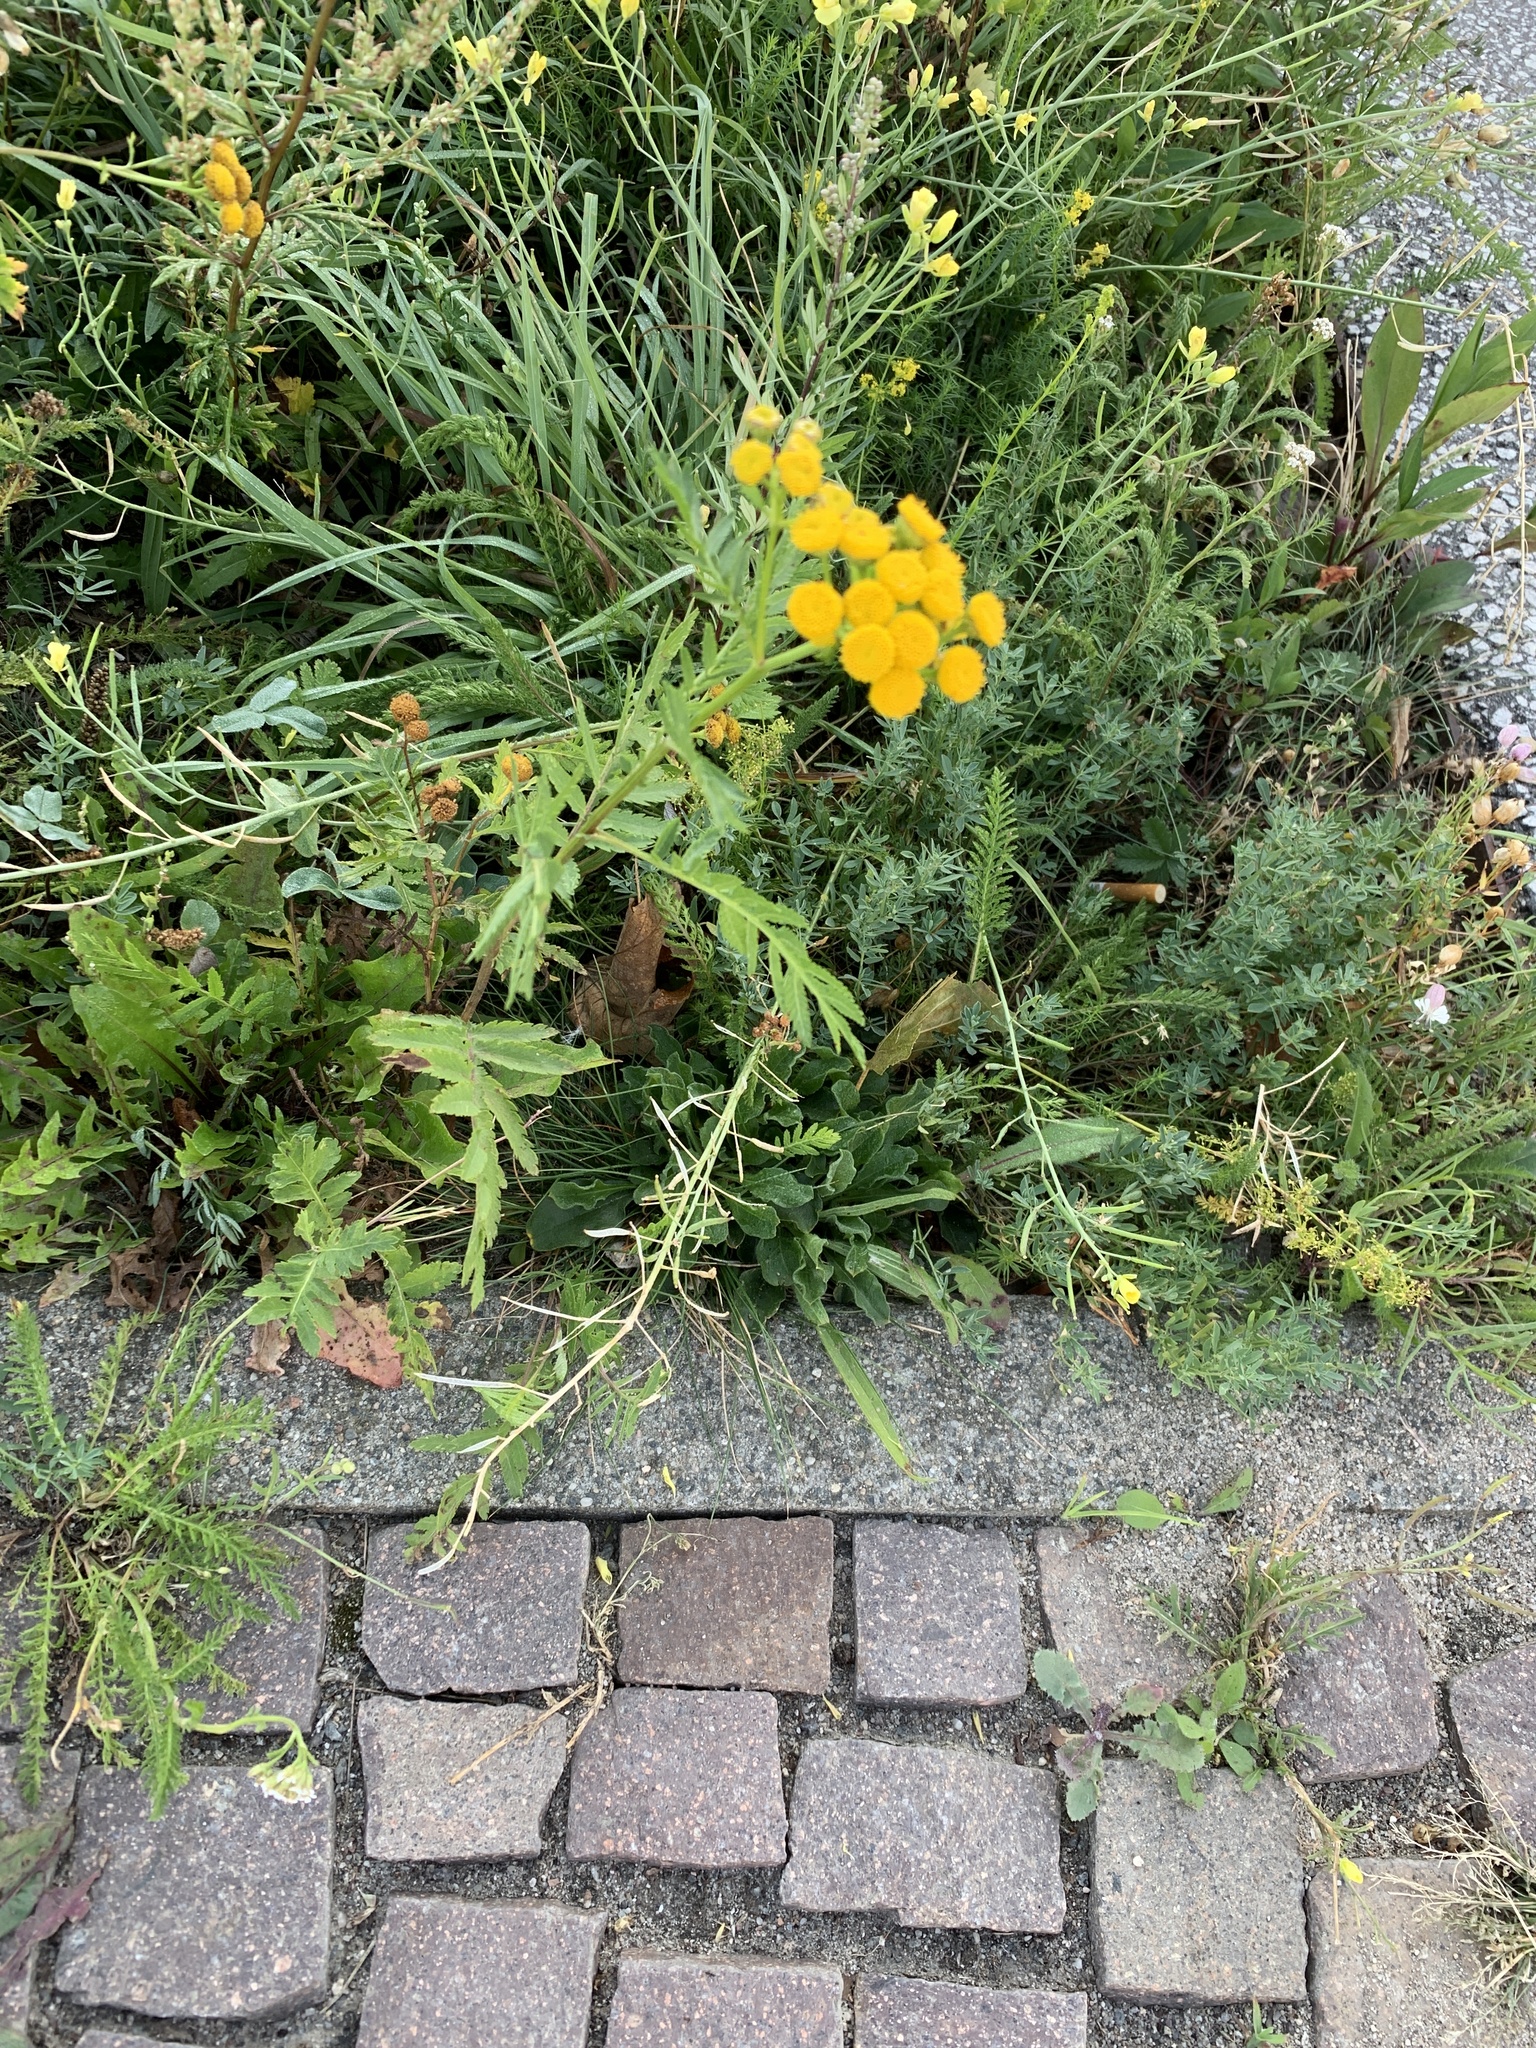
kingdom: Plantae
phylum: Tracheophyta
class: Magnoliopsida
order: Asterales
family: Asteraceae
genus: Tanacetum
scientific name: Tanacetum vulgare
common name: Common tansy
